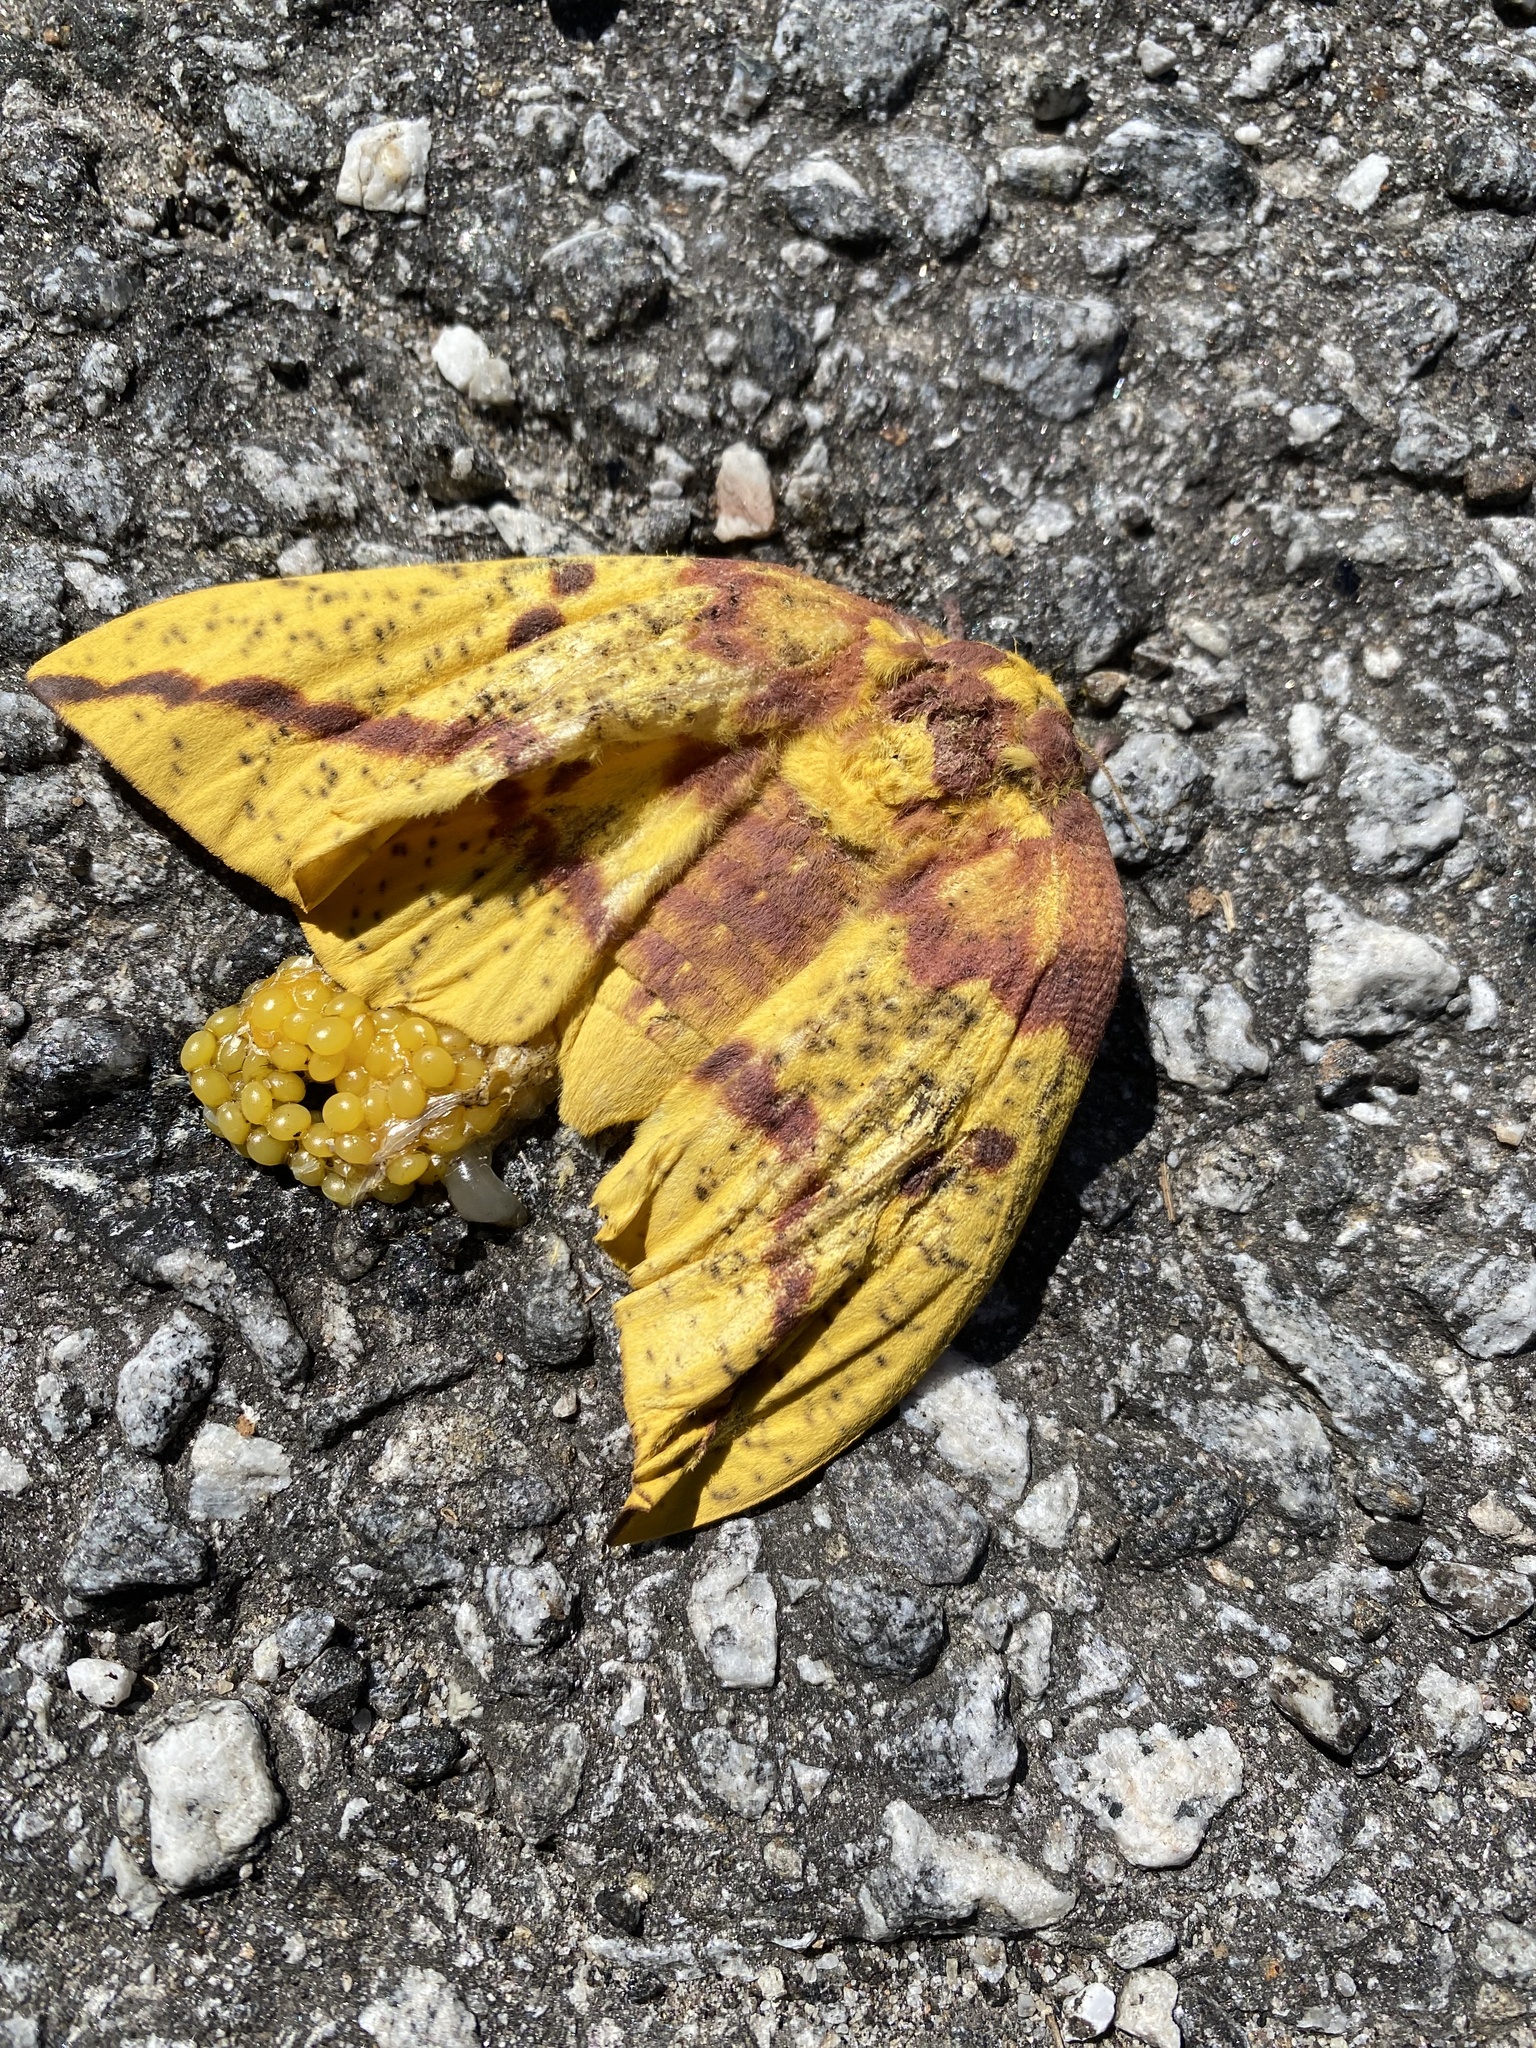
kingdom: Animalia
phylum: Arthropoda
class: Insecta
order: Lepidoptera
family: Saturniidae
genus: Eacles
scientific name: Eacles imperialis
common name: Imperial moth
